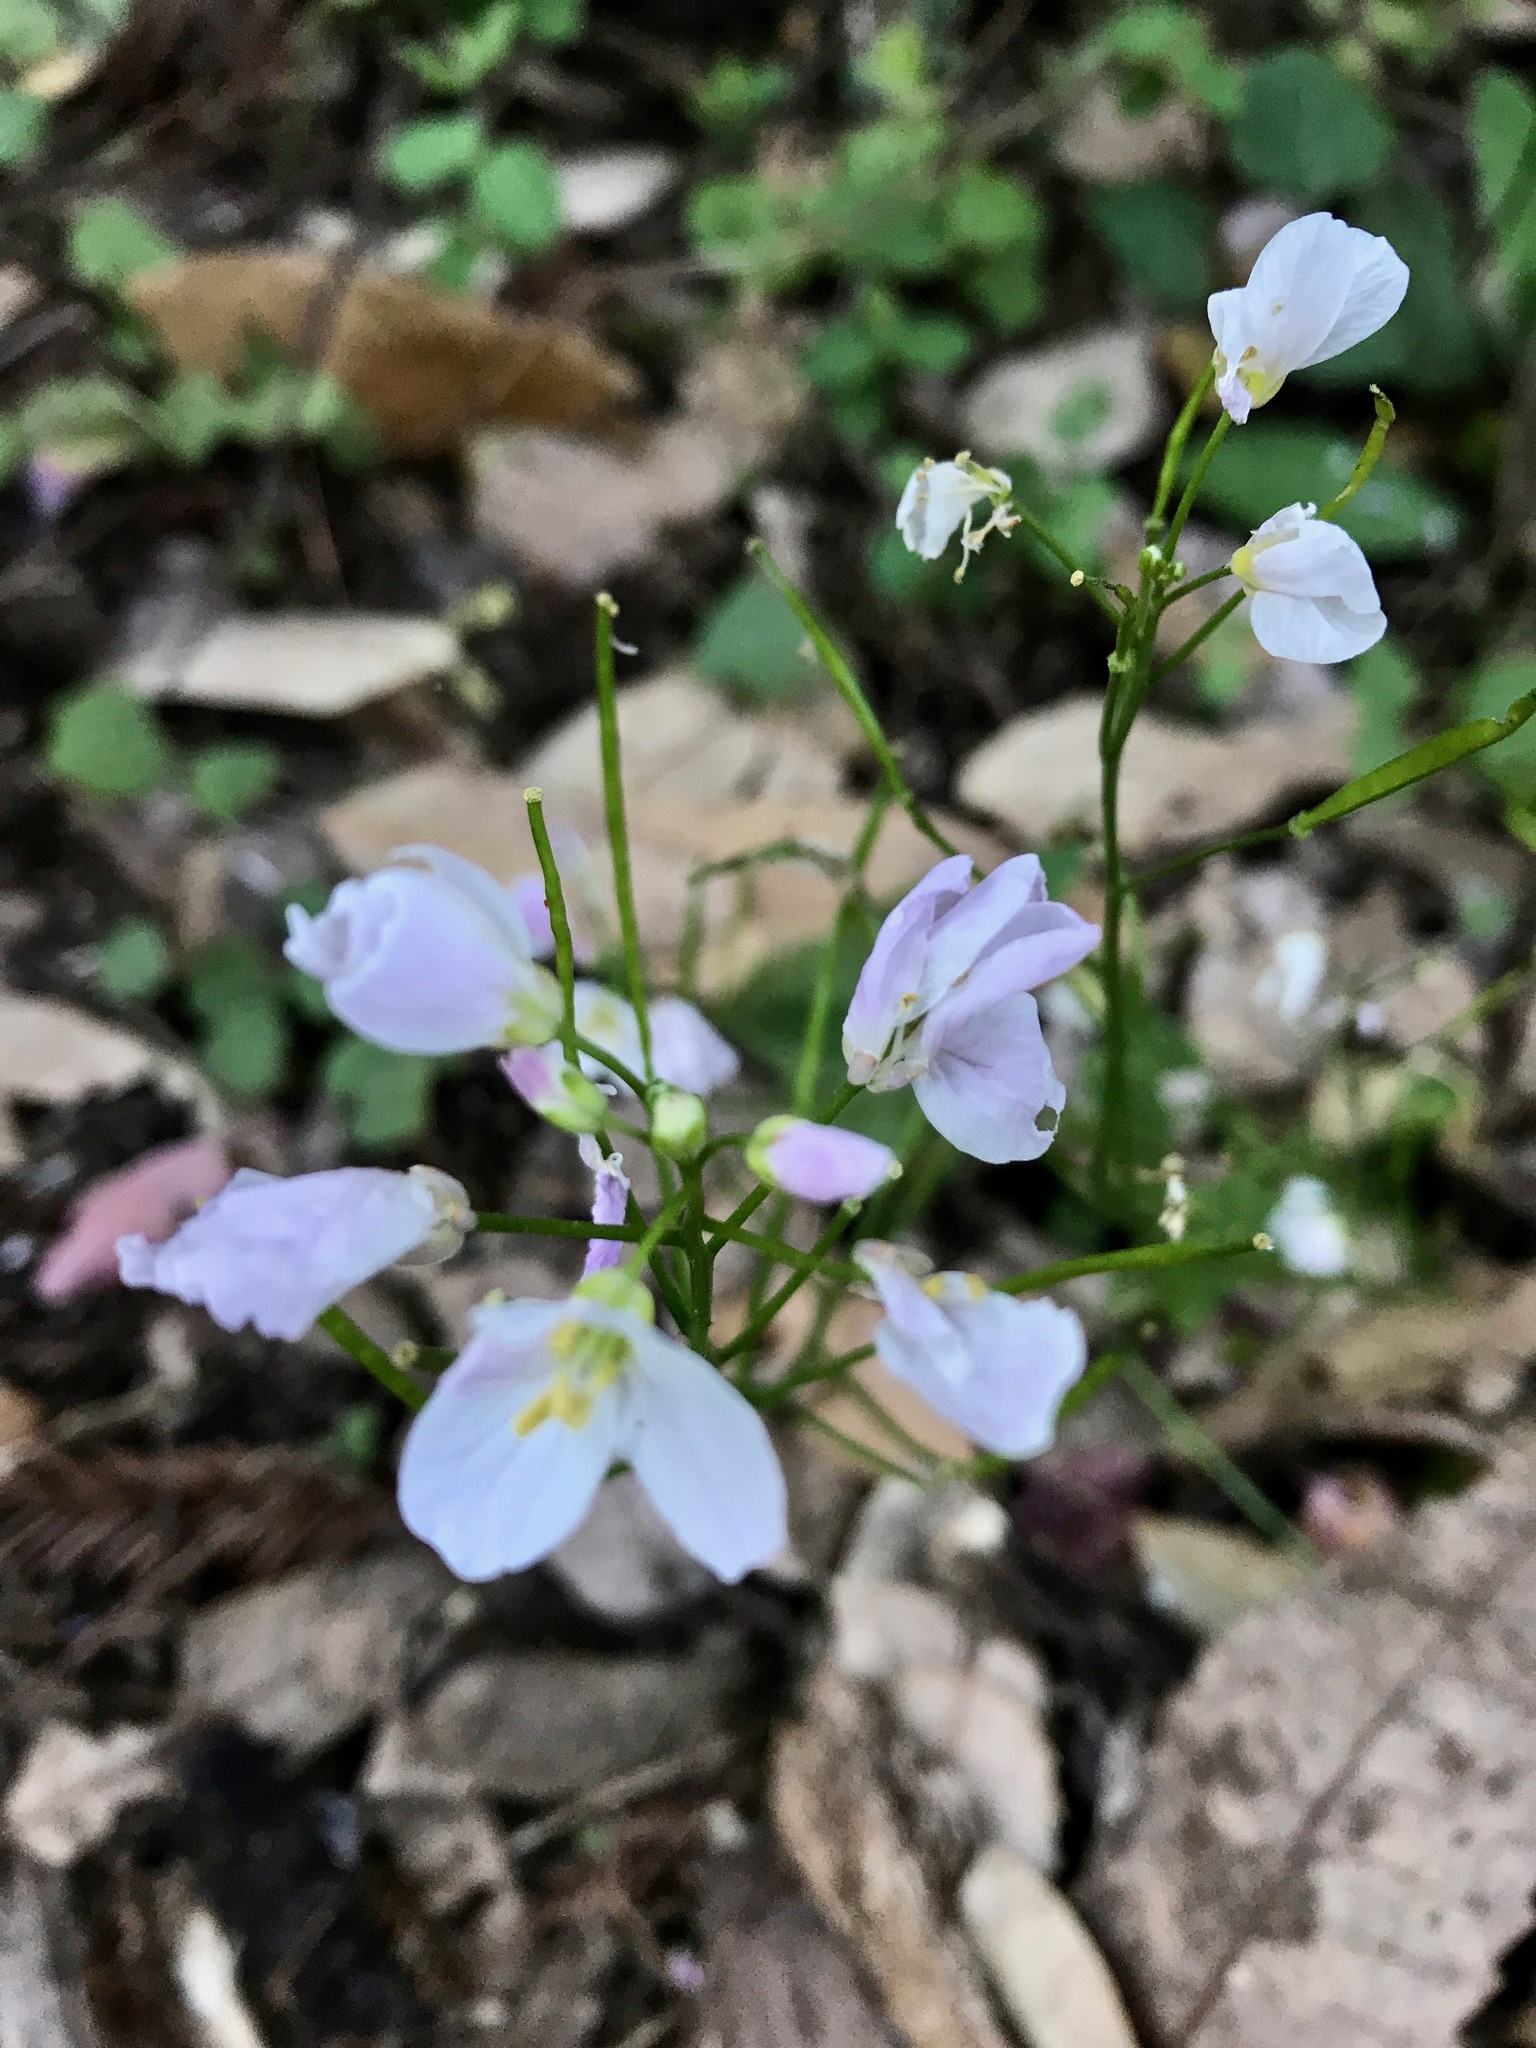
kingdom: Plantae
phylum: Tracheophyta
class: Magnoliopsida
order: Brassicales
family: Brassicaceae
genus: Cardamine
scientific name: Cardamine californica
